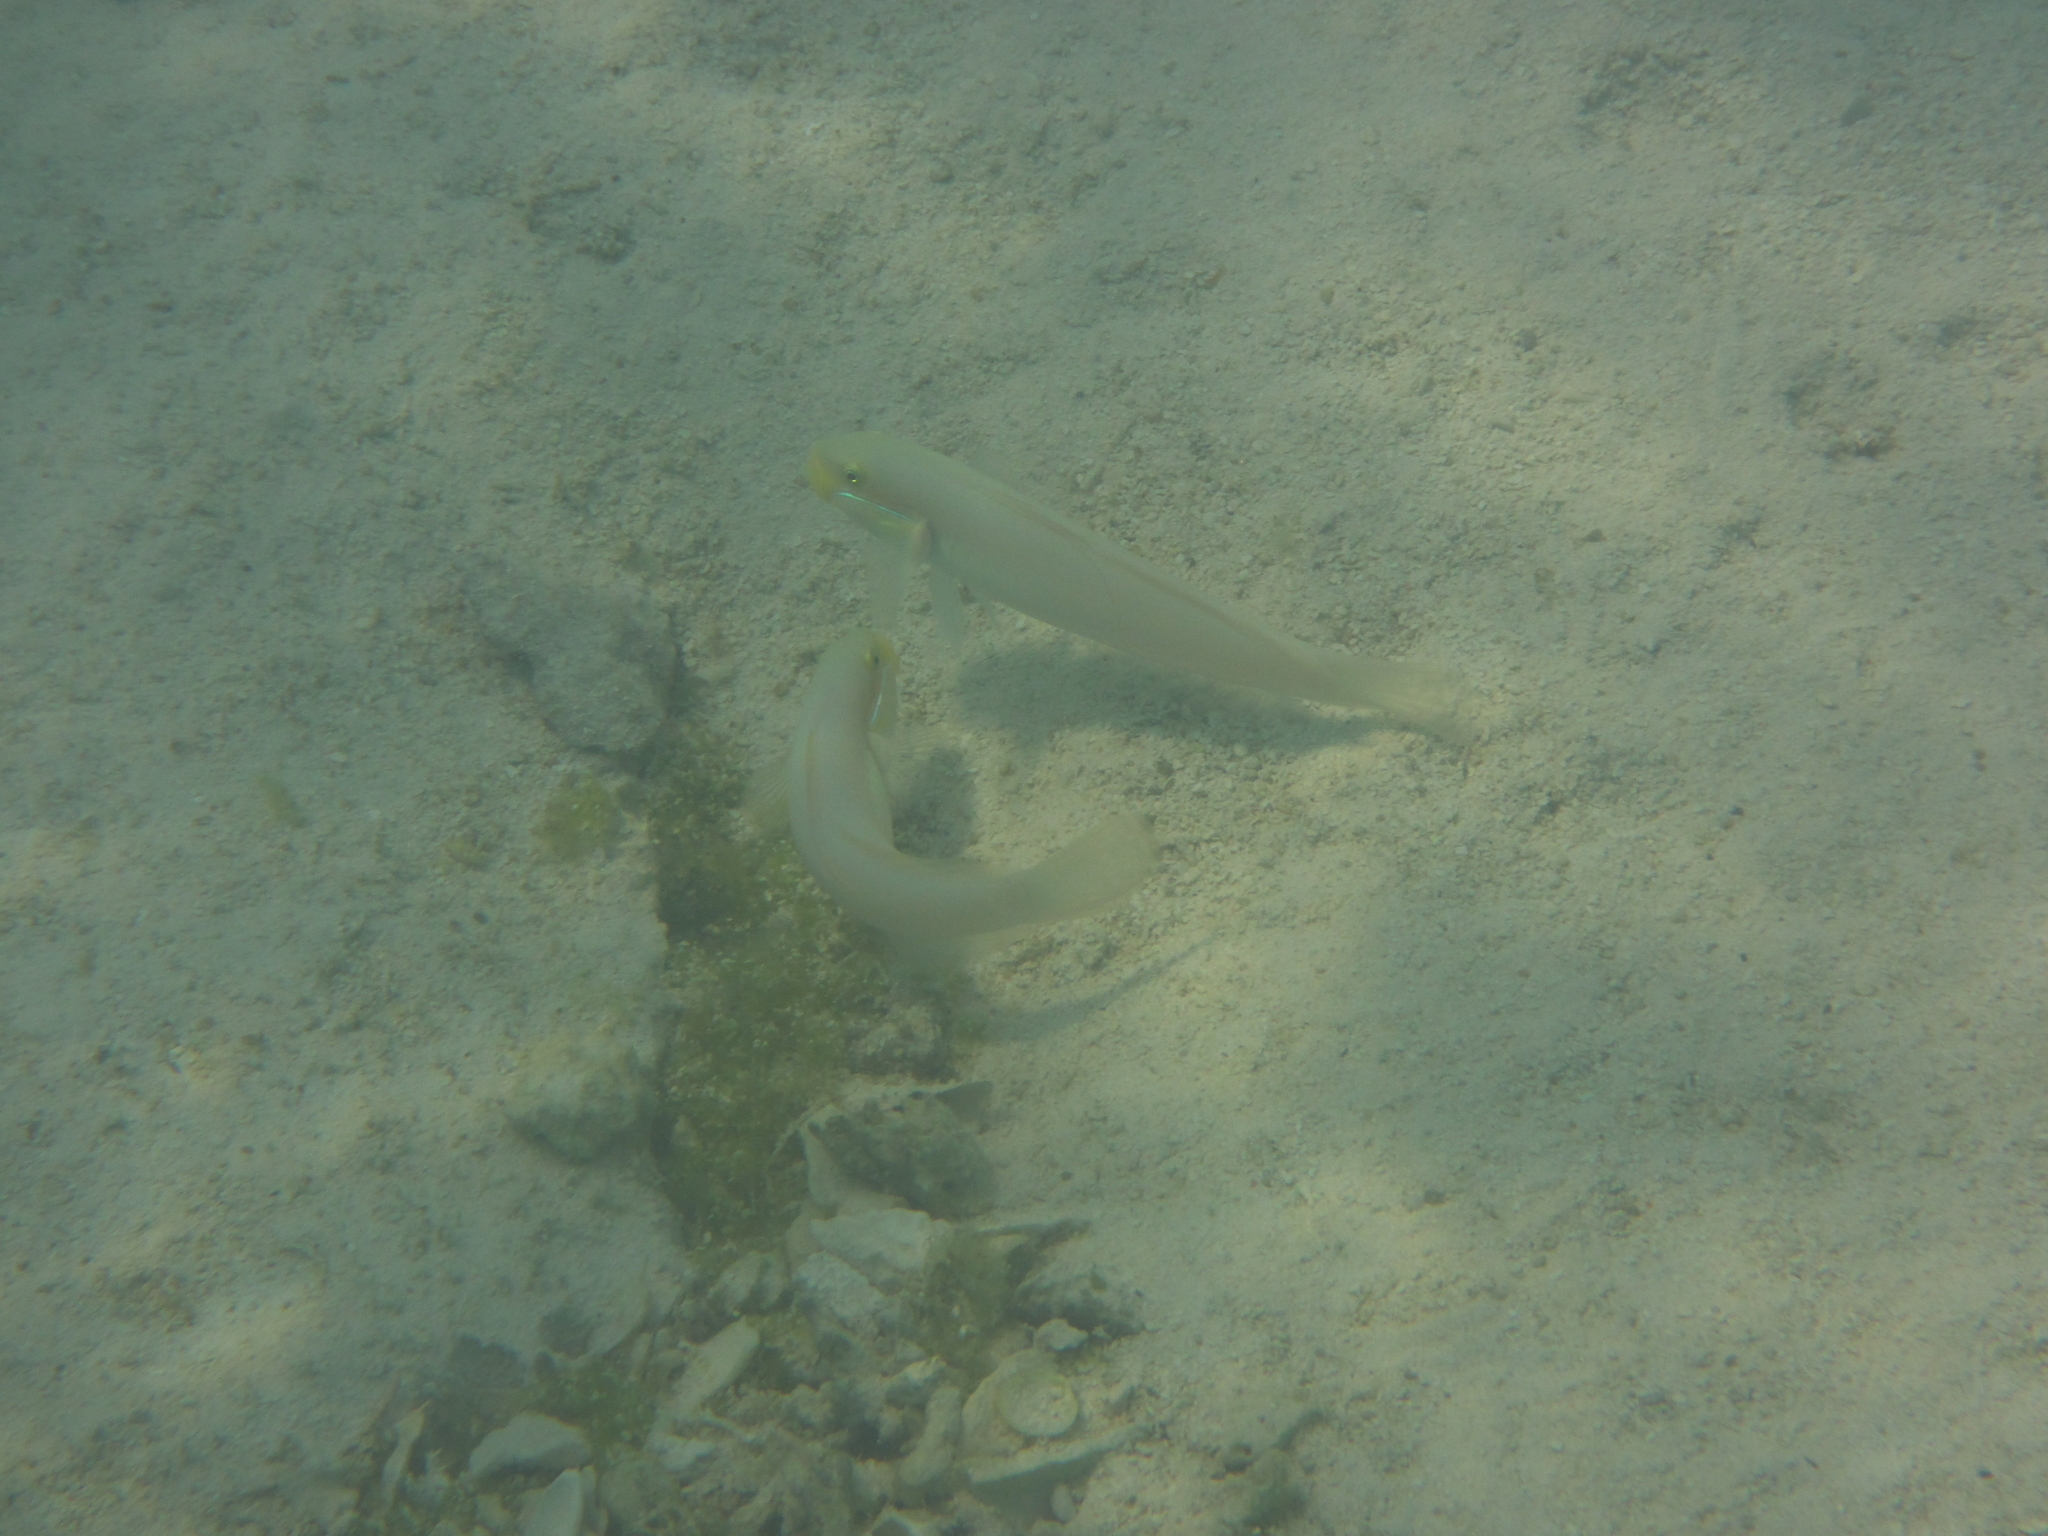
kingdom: Animalia
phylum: Chordata
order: Perciformes
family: Gobiidae
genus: Valenciennea
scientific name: Valenciennea strigata
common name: Blueband goby
